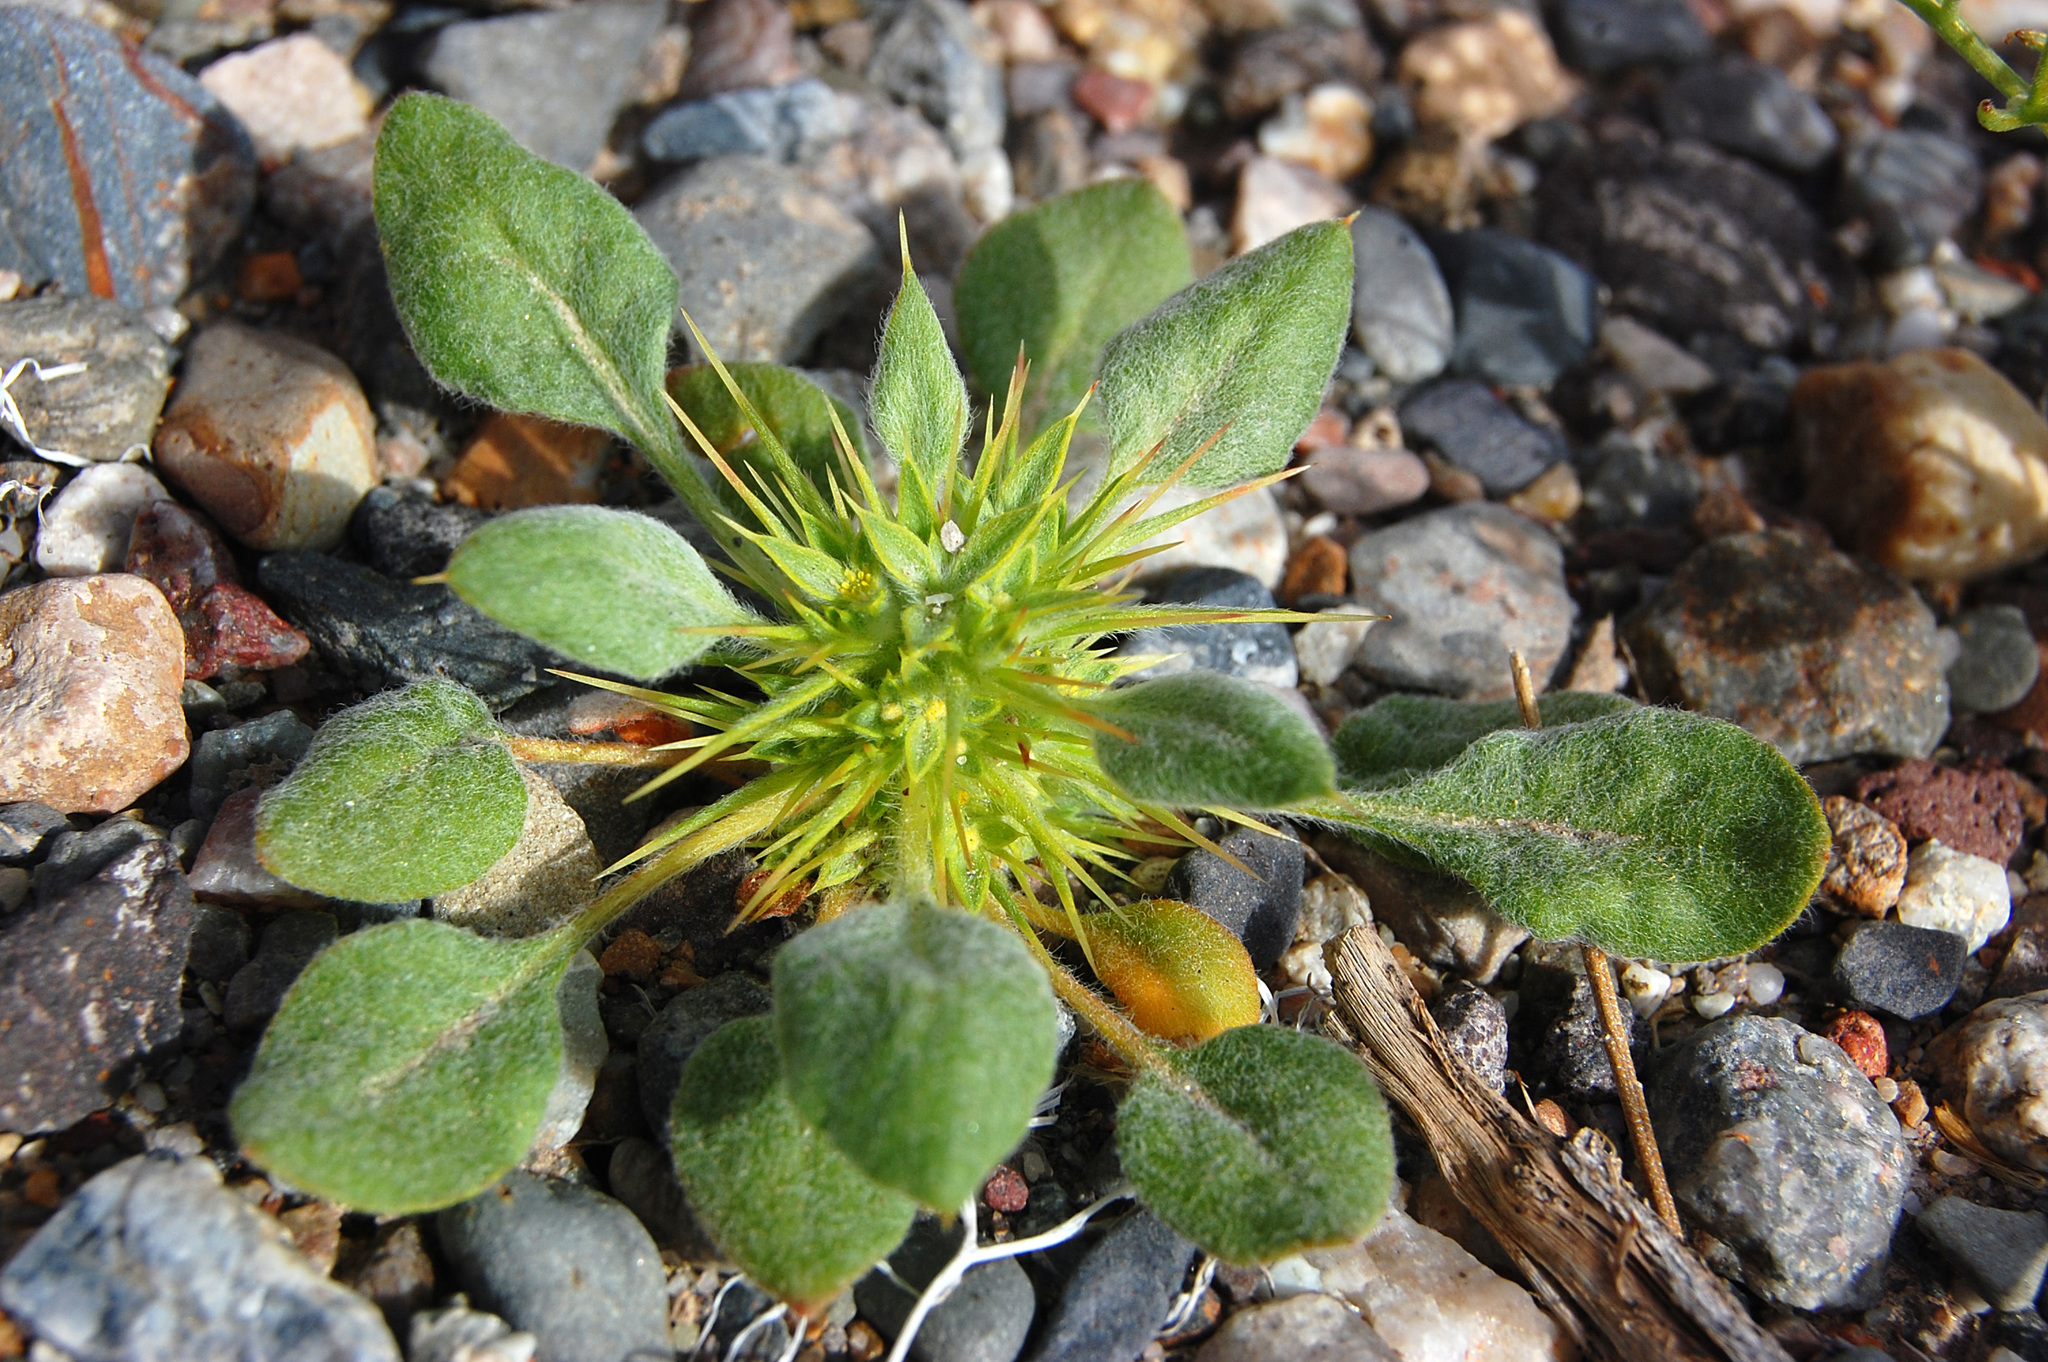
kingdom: Plantae
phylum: Tracheophyta
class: Magnoliopsida
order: Caryophyllales
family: Polygonaceae
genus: Chorizanthe
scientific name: Chorizanthe rigida
